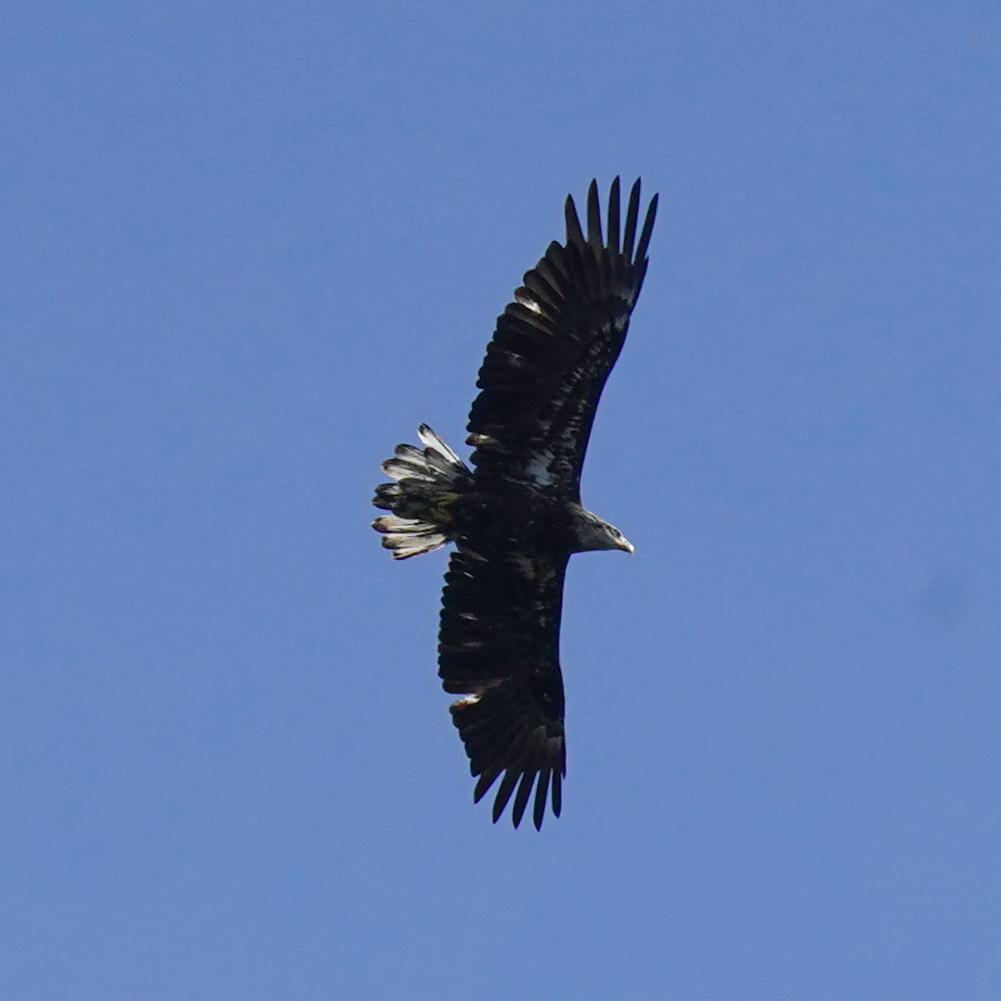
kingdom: Animalia
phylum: Chordata
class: Aves
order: Accipitriformes
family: Accipitridae
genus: Haliaeetus
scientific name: Haliaeetus leucocephalus
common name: Bald eagle
